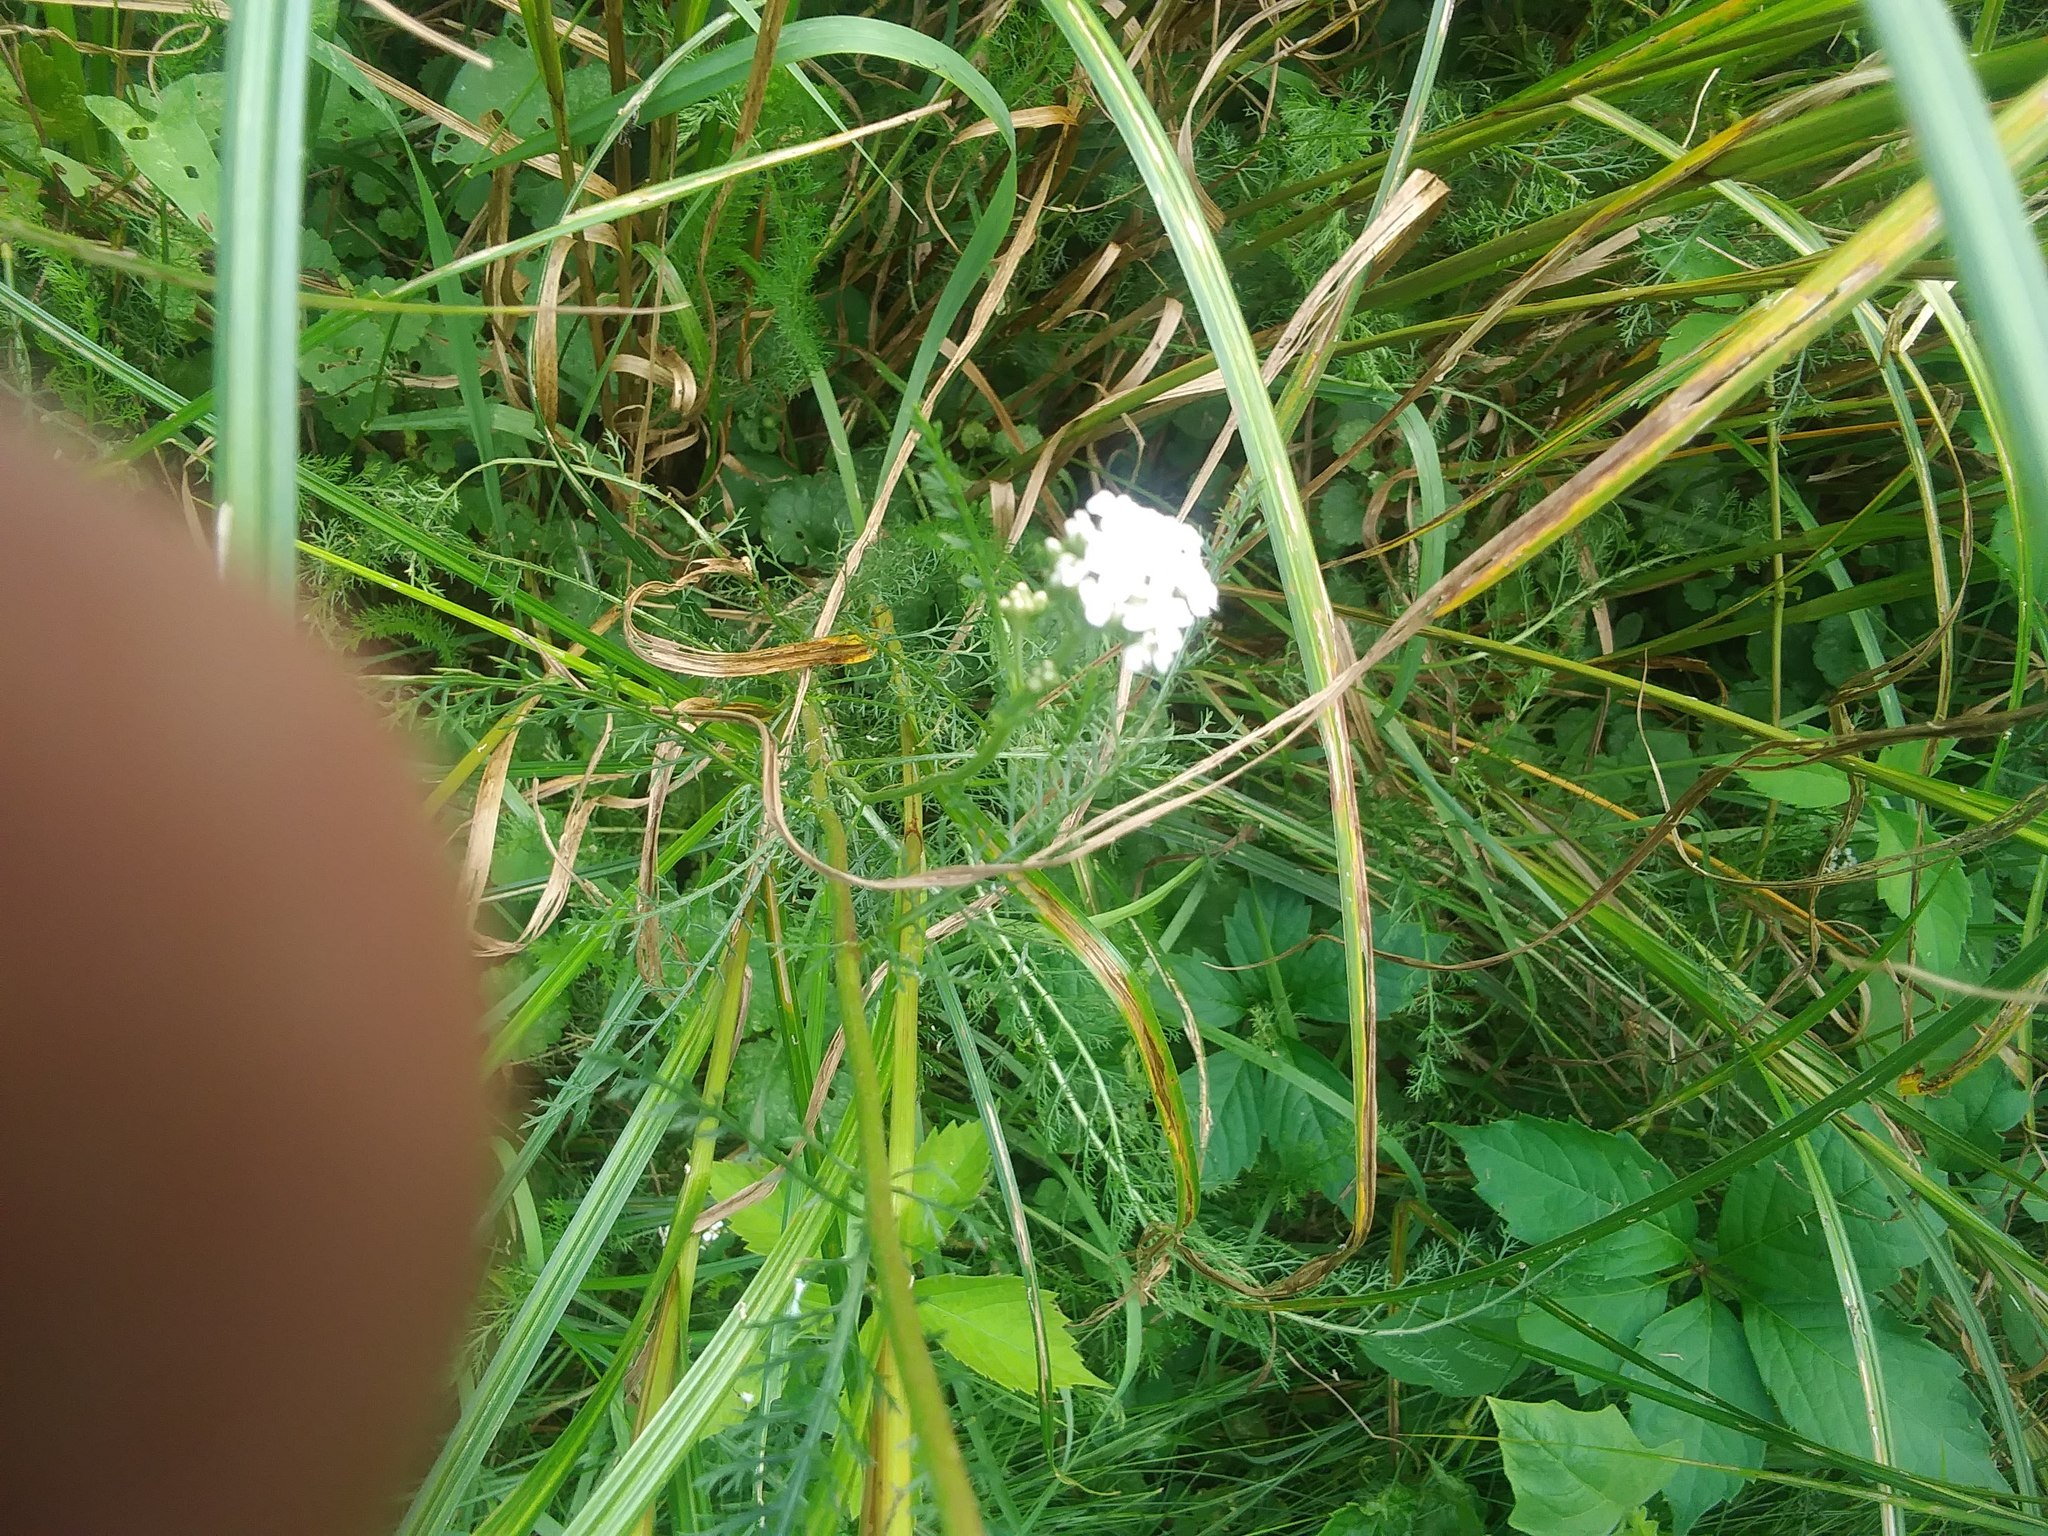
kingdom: Plantae
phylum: Tracheophyta
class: Magnoliopsida
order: Asterales
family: Asteraceae
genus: Achillea
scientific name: Achillea millefolium
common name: Yarrow
